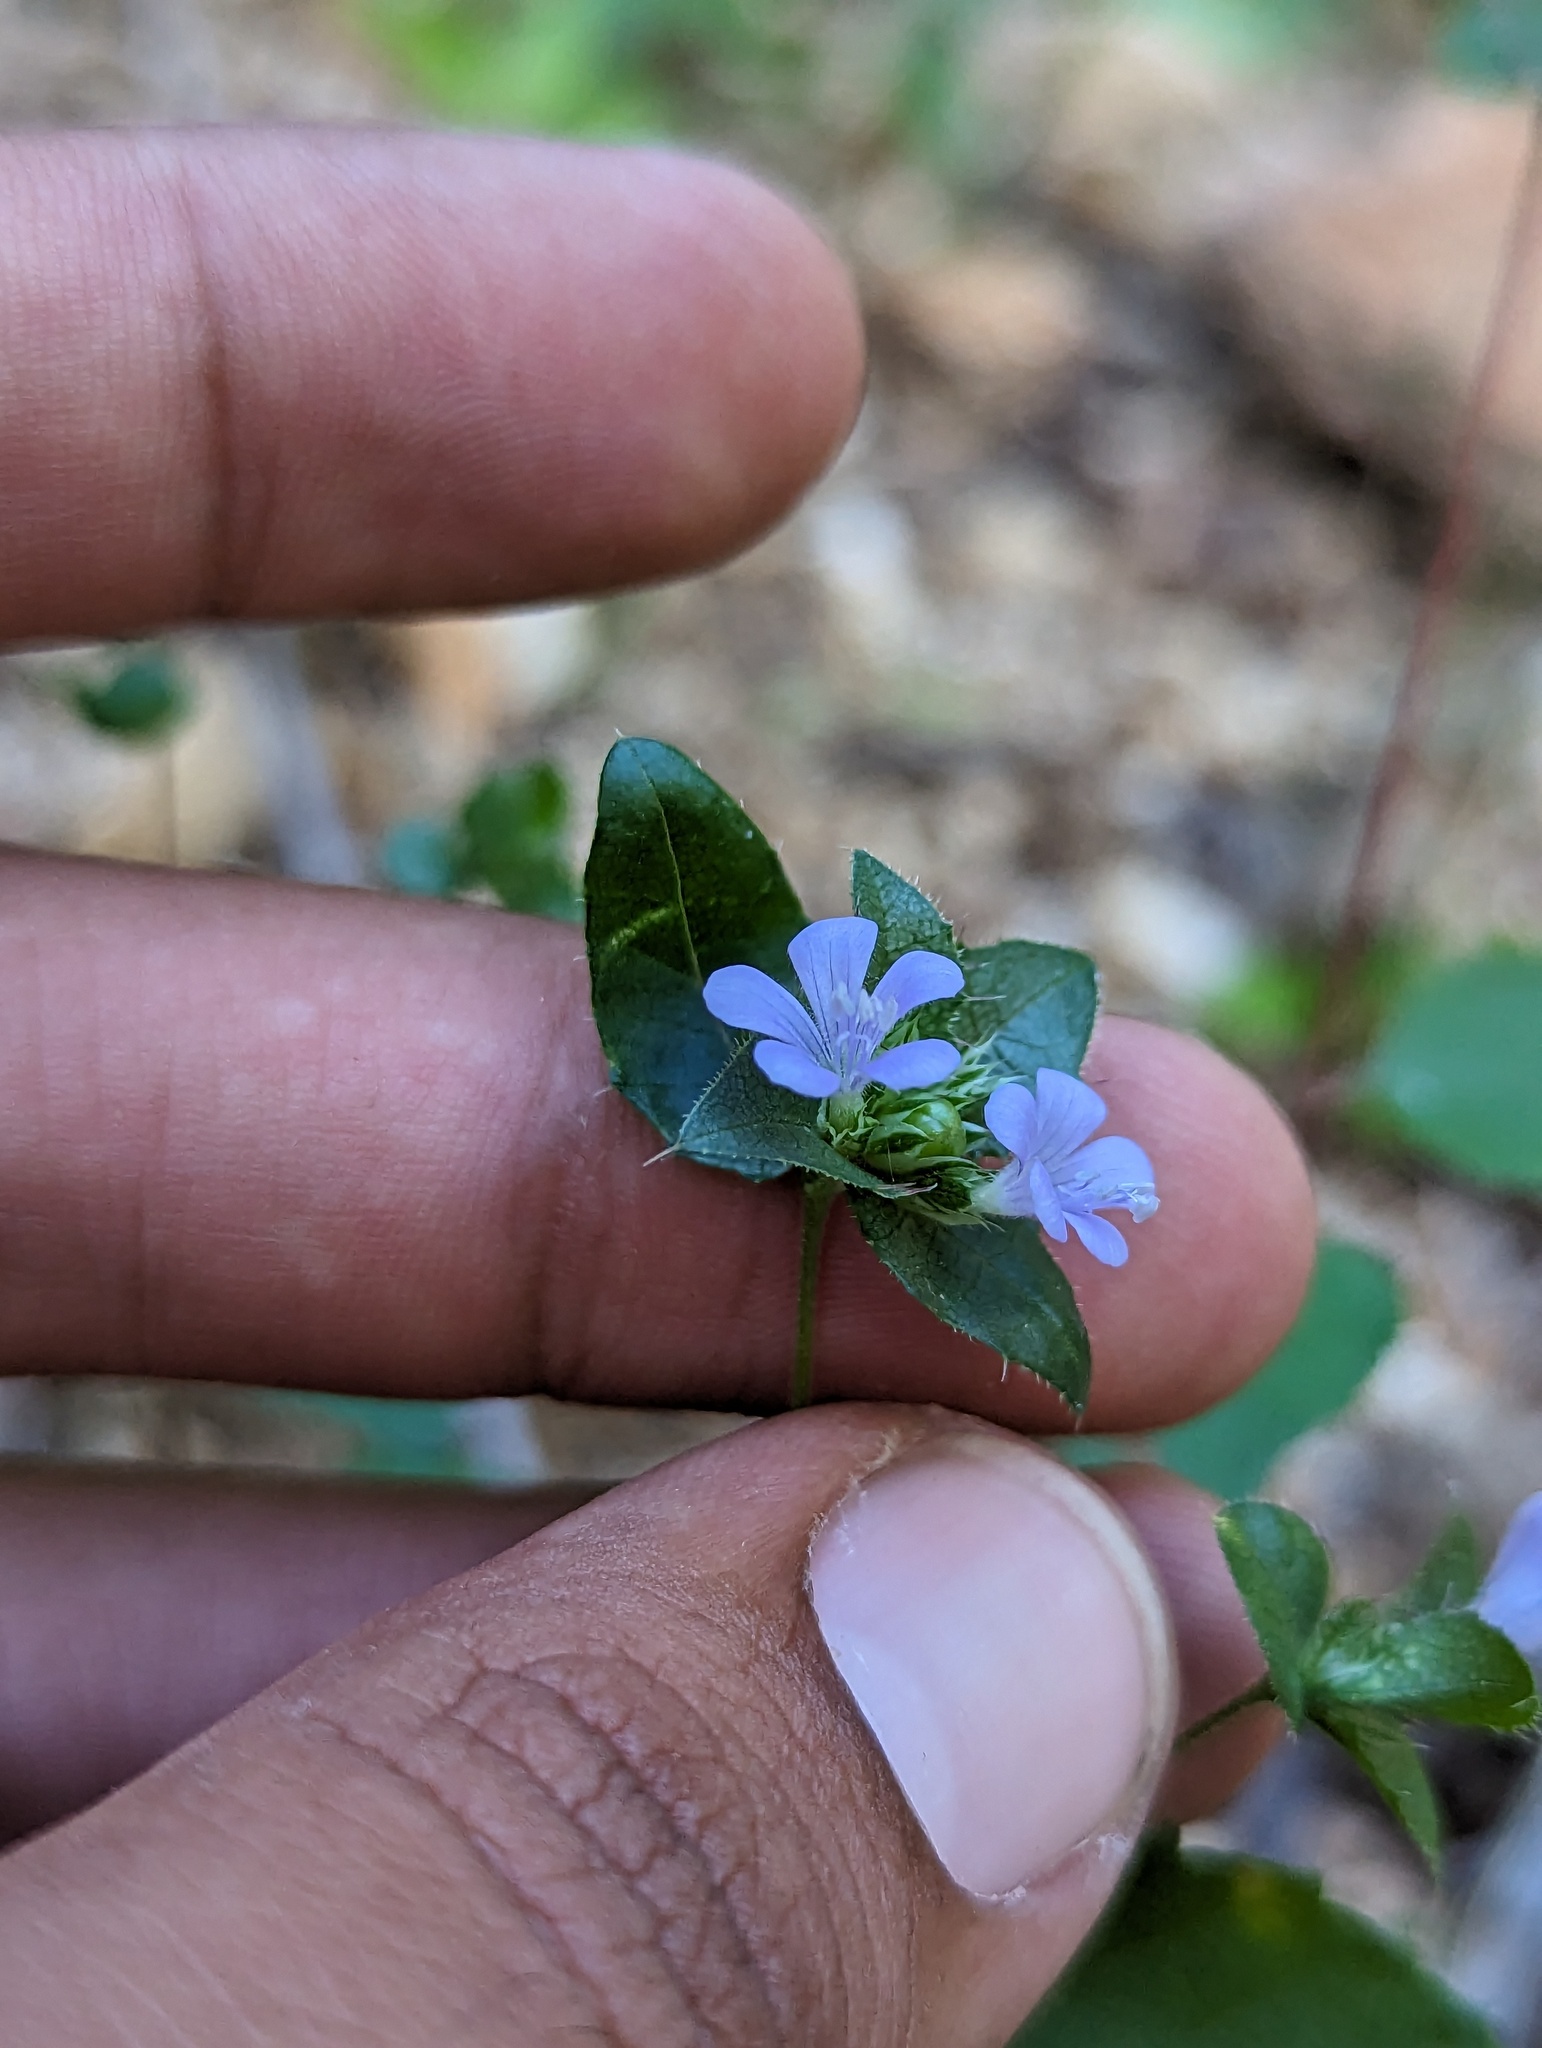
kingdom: Plantae
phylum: Tracheophyta
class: Magnoliopsida
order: Ericales
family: Polemoniaceae
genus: Loeselia
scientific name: Loeselia ciliata
